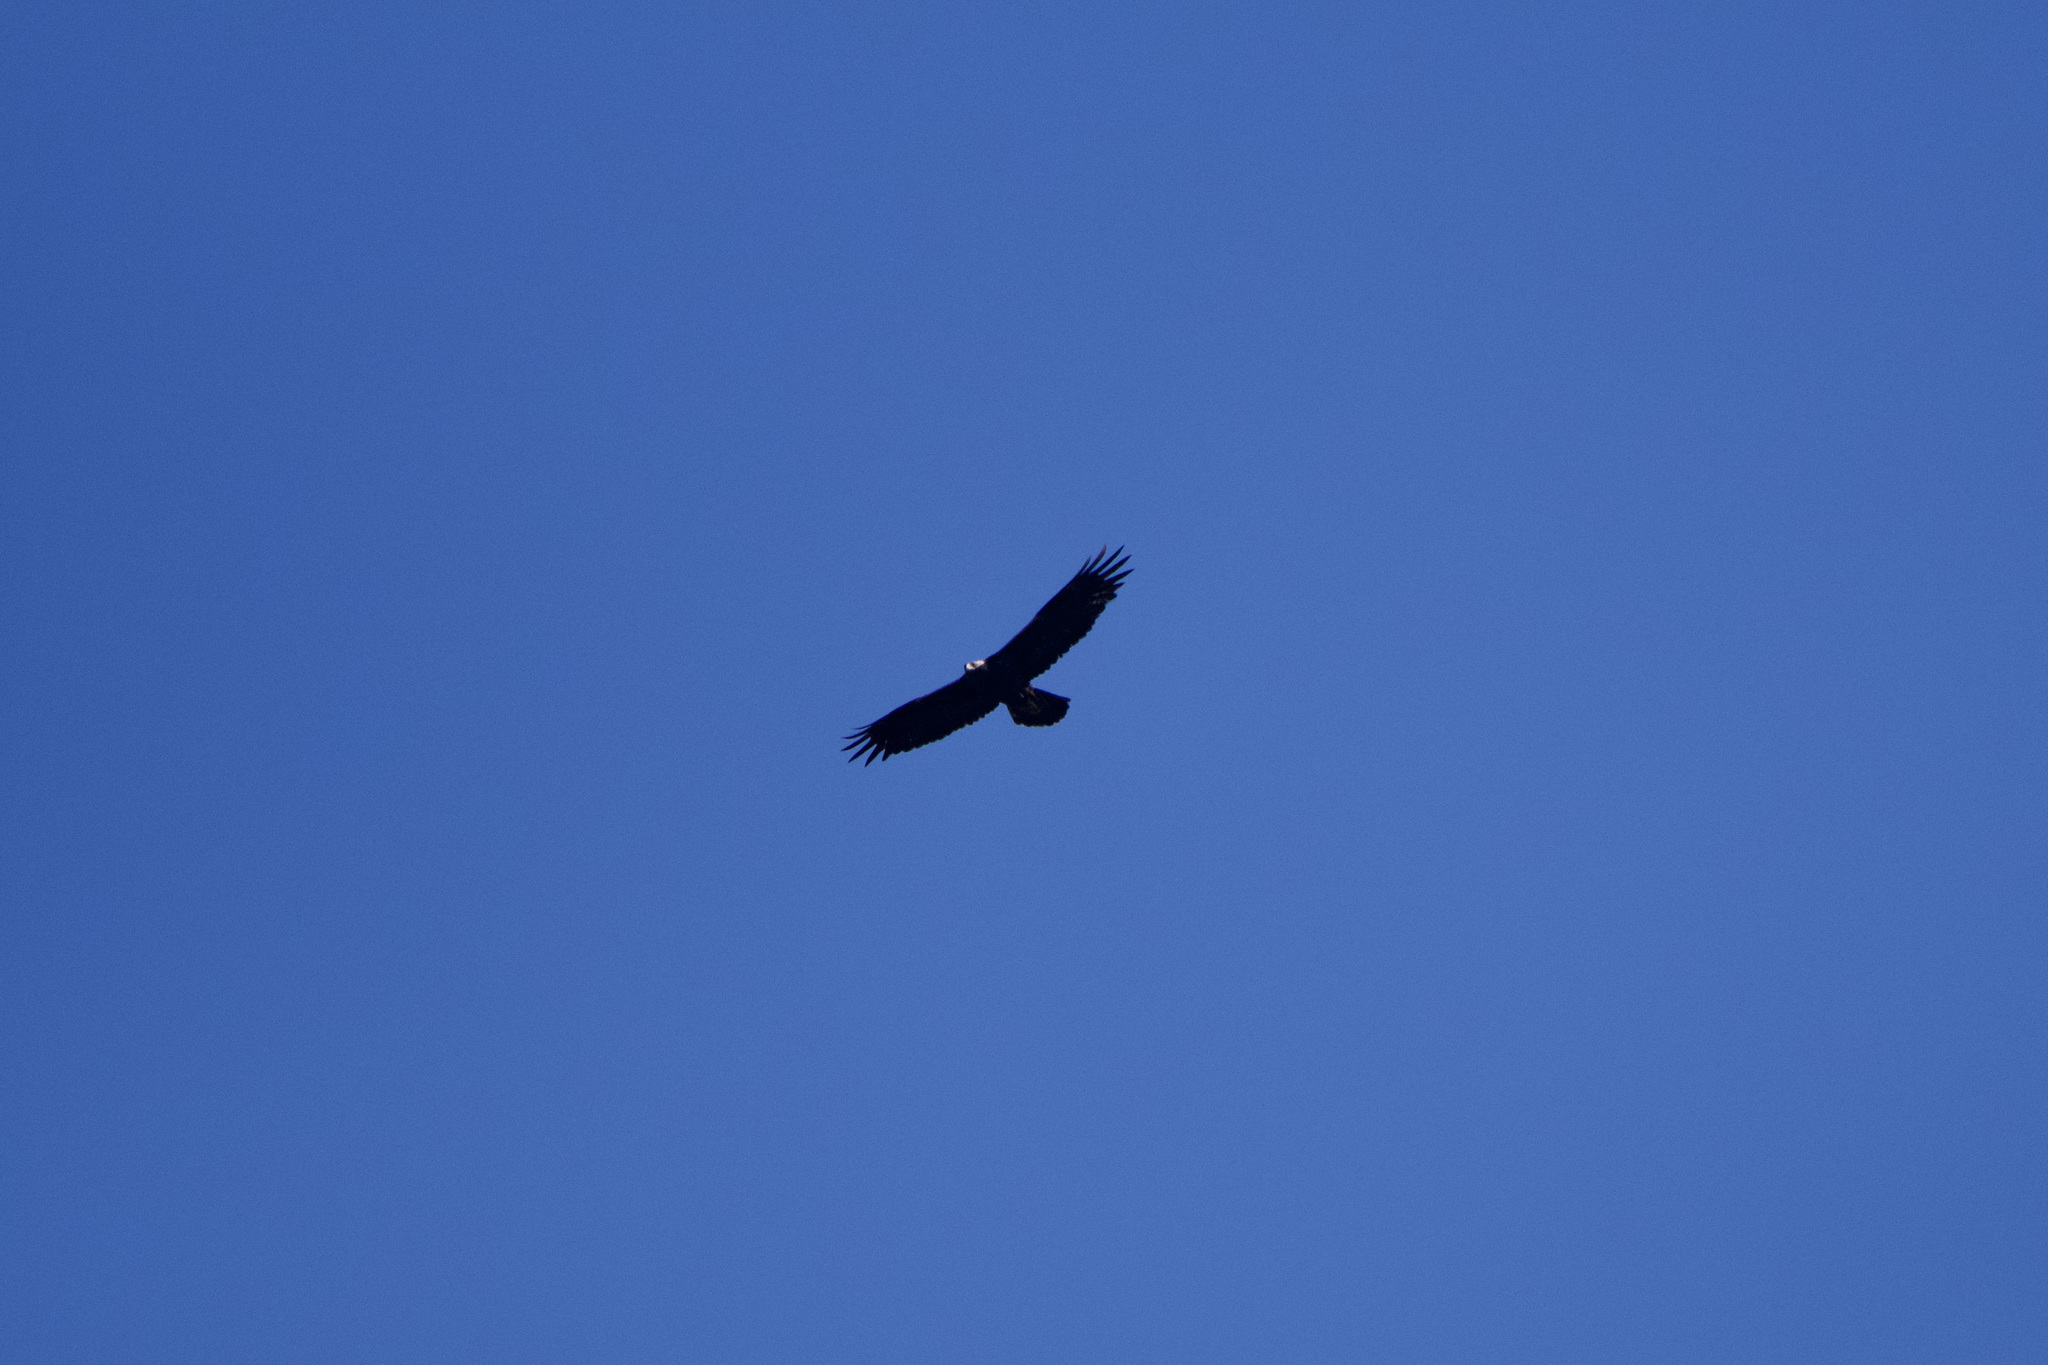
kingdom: Animalia
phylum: Chordata
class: Aves
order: Accipitriformes
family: Accipitridae
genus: Aquila
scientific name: Aquila chrysaetos
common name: Golden eagle
